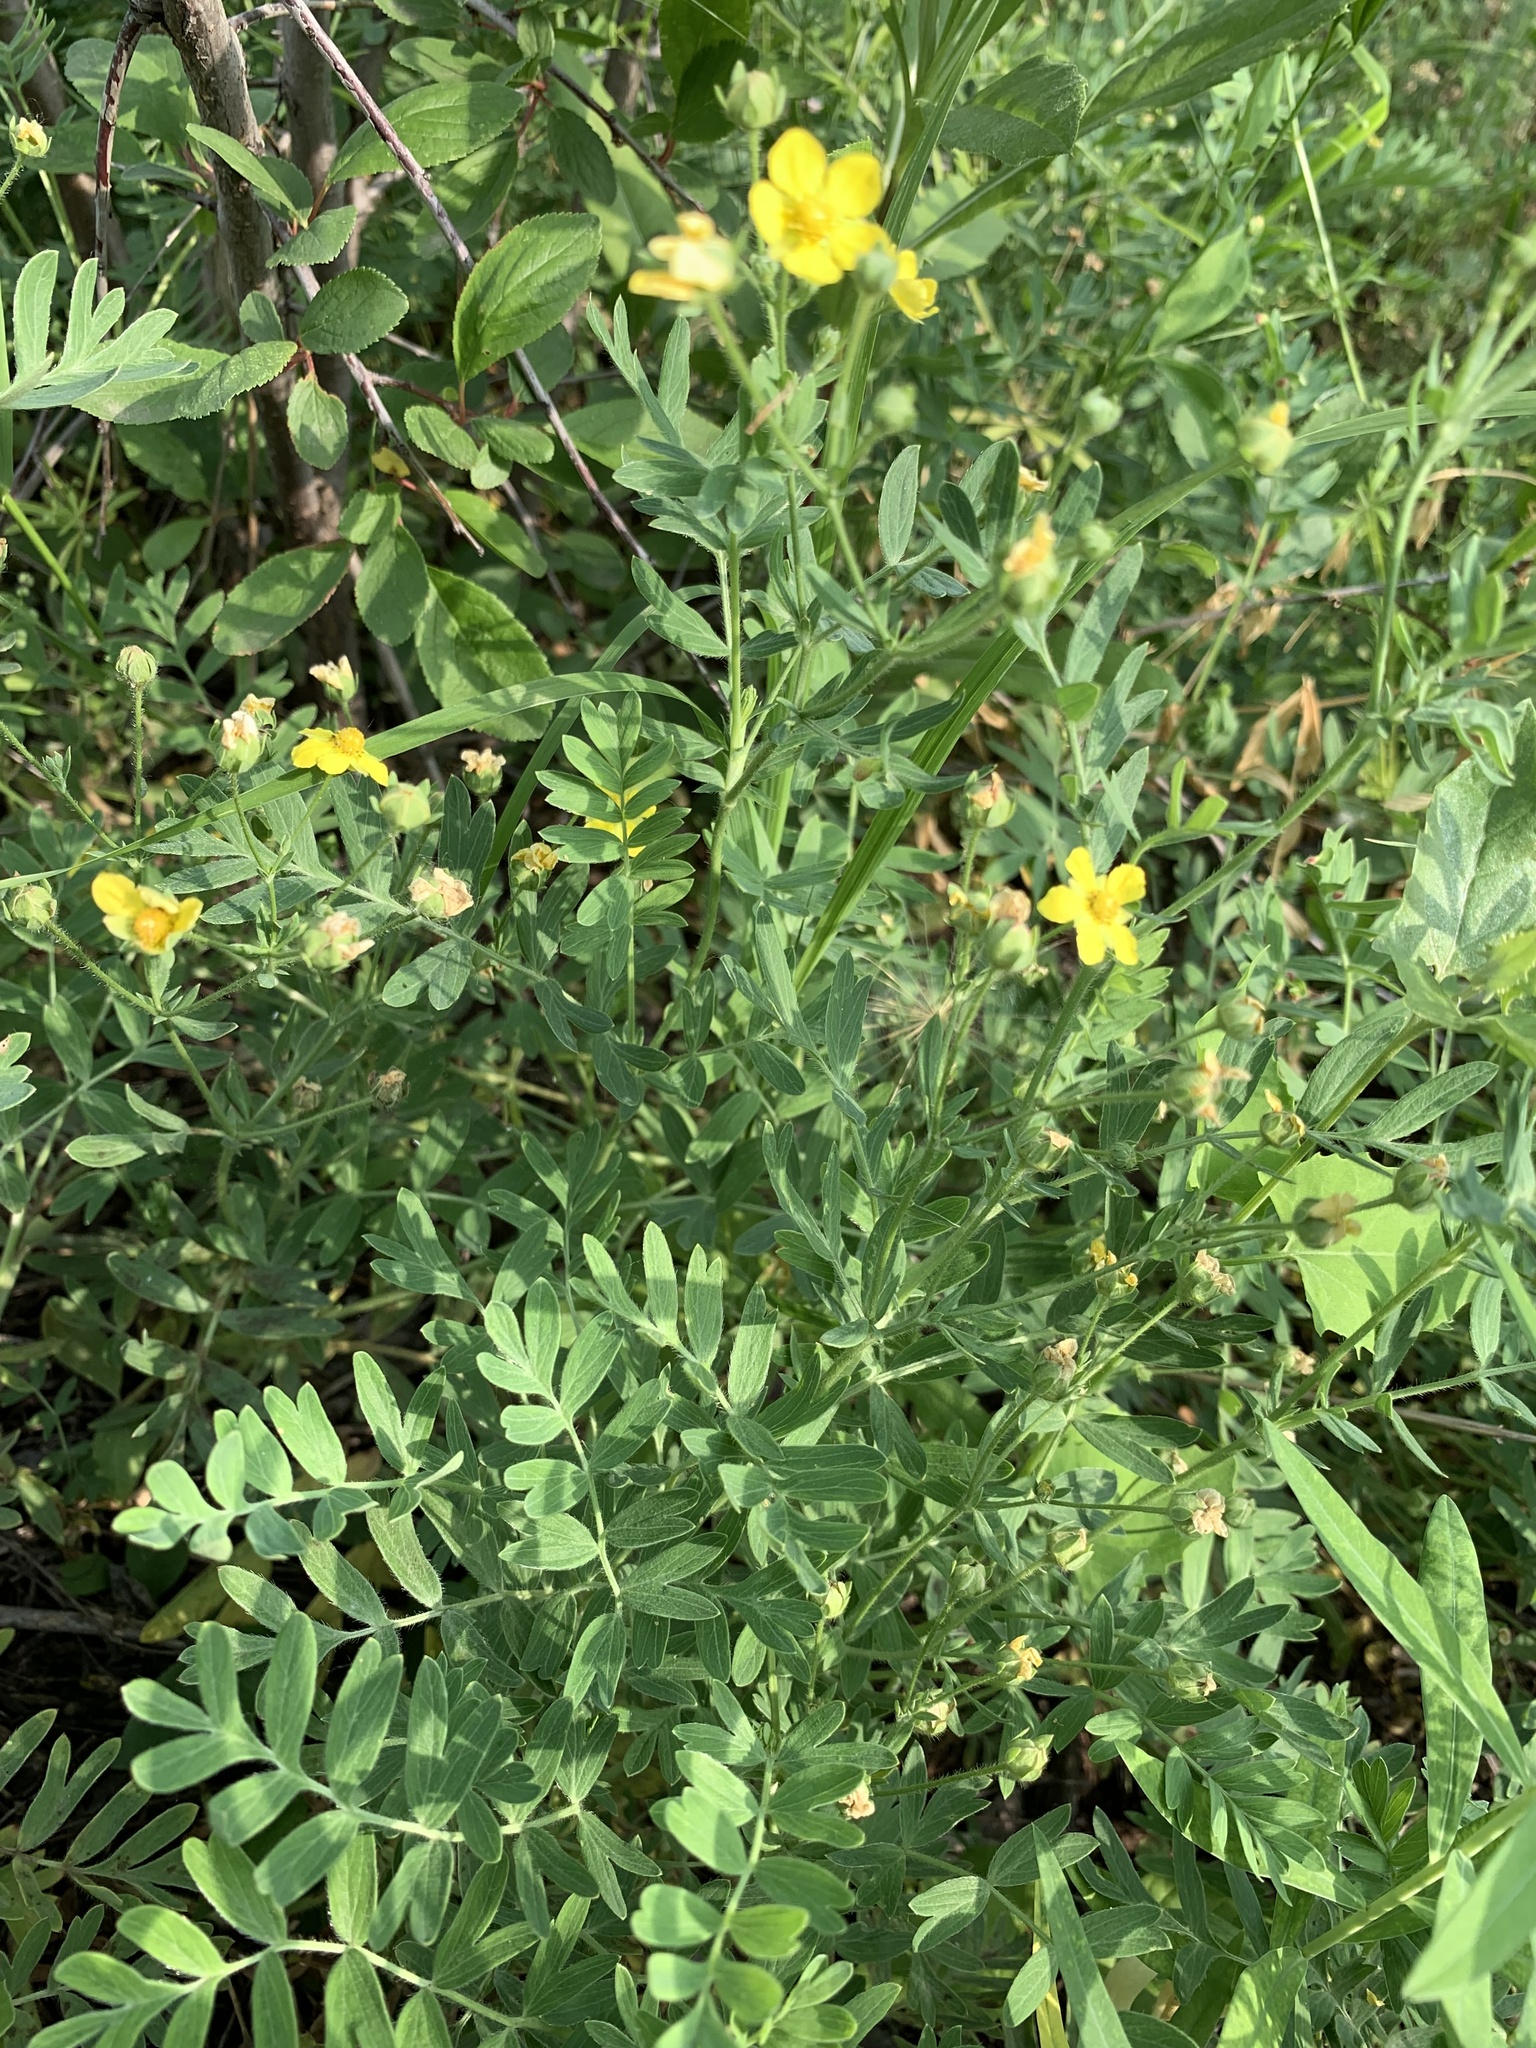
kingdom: Plantae
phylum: Tracheophyta
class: Magnoliopsida
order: Rosales
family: Rosaceae
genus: Sibbaldianthe
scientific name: Sibbaldianthe bifurca
